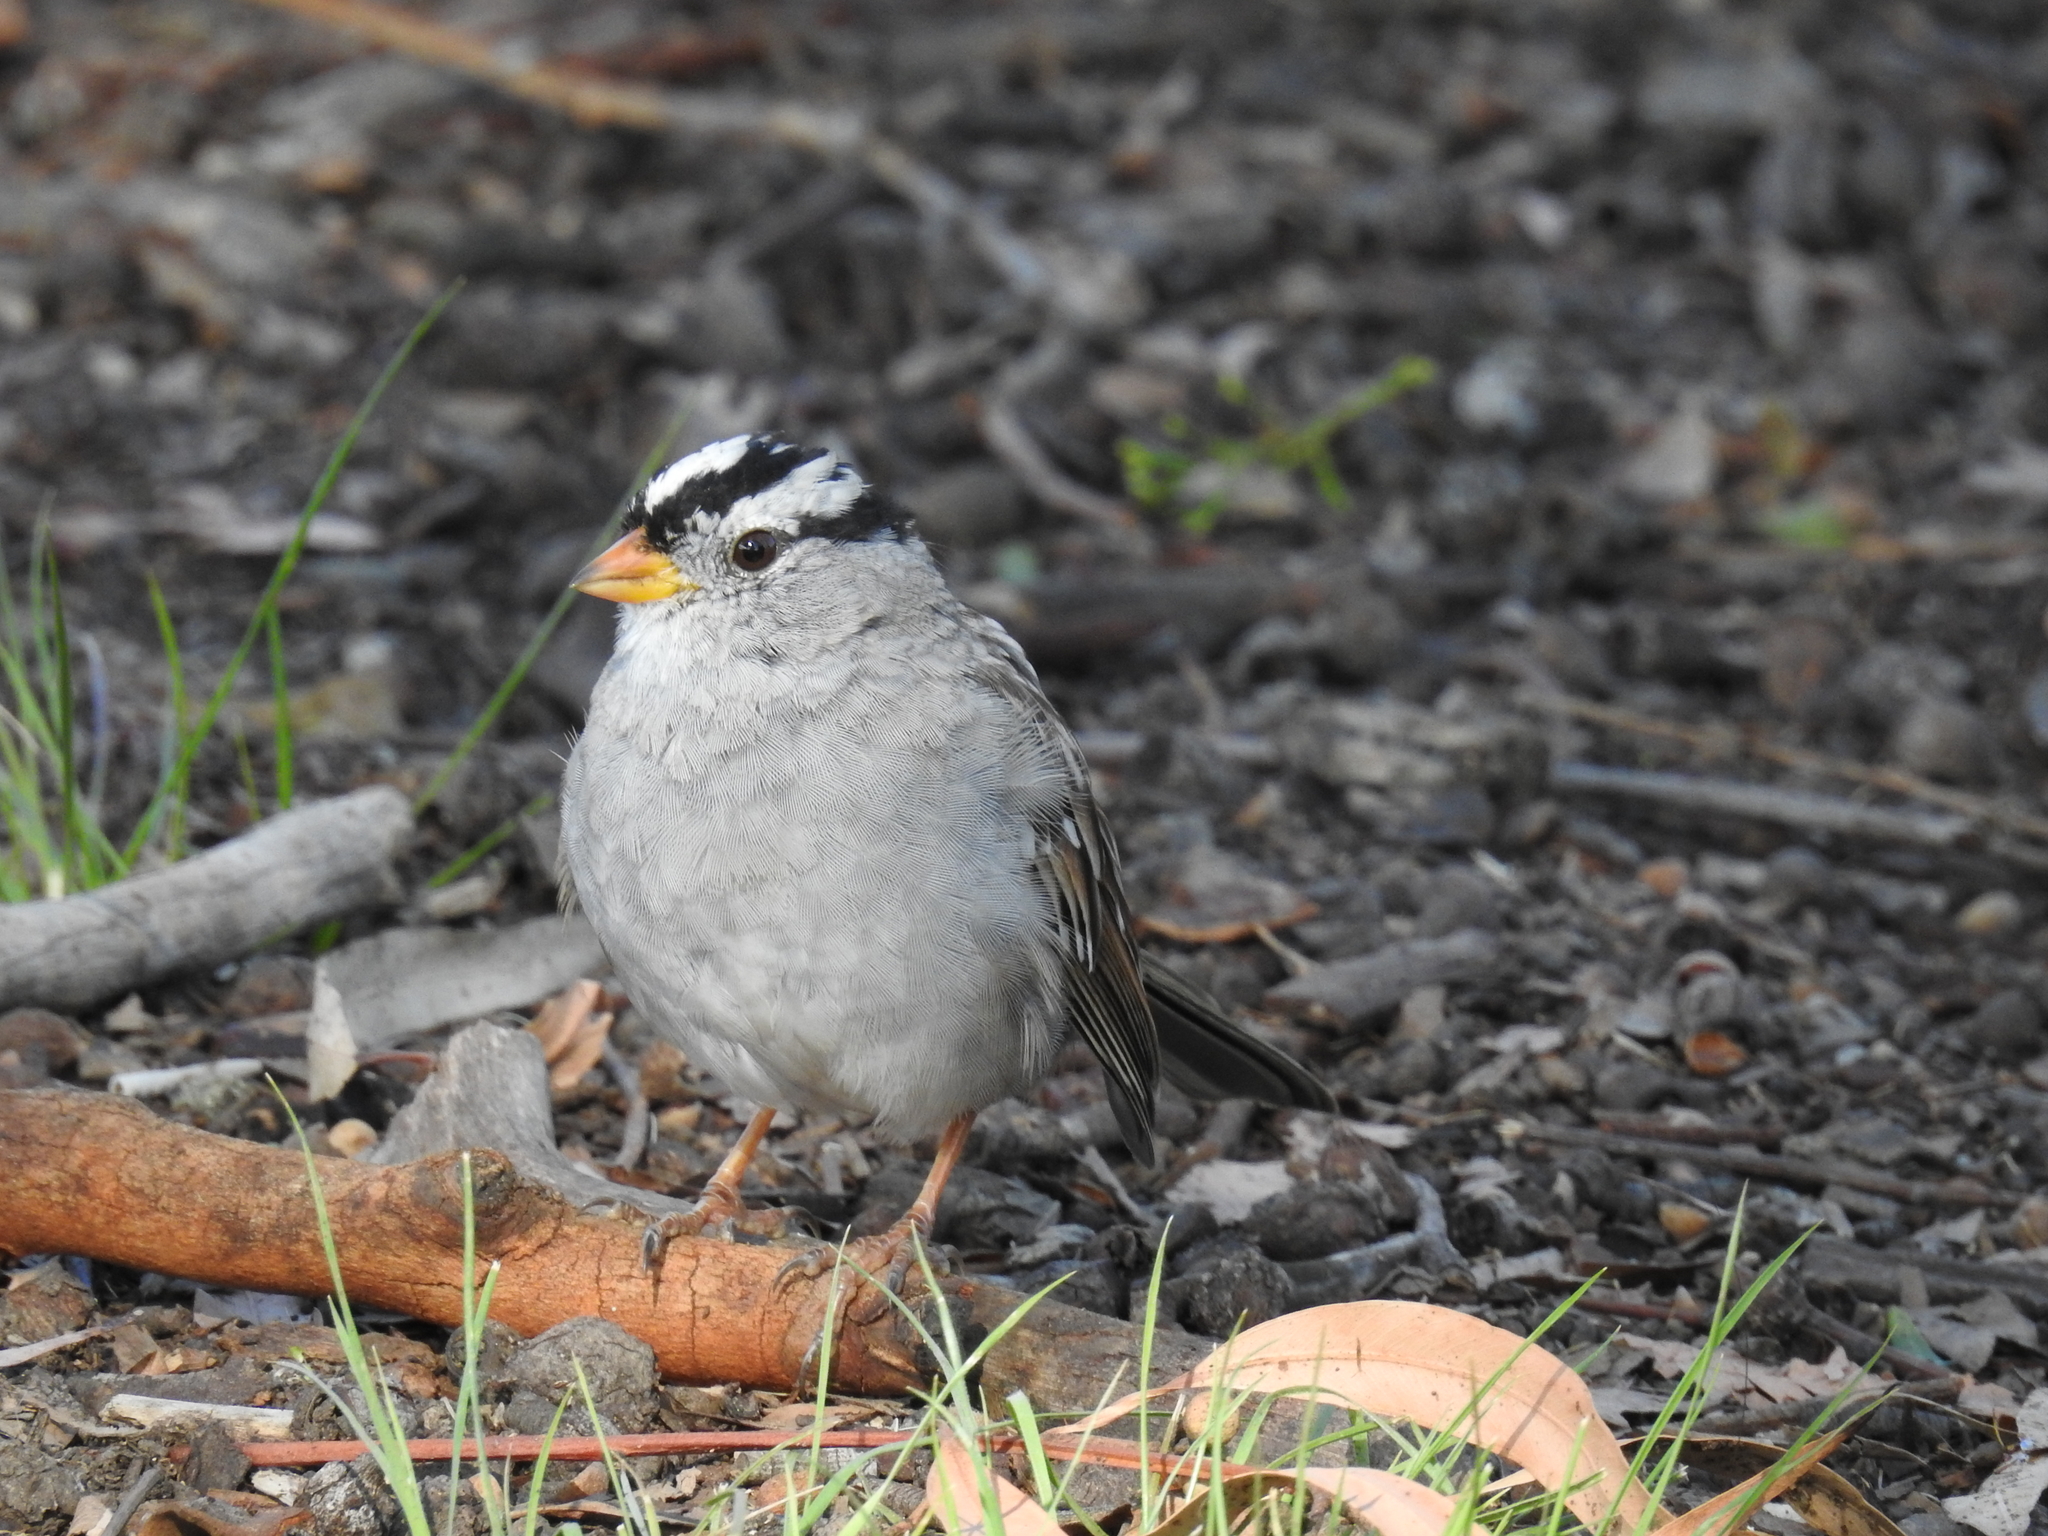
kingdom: Animalia
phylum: Chordata
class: Aves
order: Passeriformes
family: Passerellidae
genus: Zonotrichia
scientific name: Zonotrichia leucophrys
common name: White-crowned sparrow
